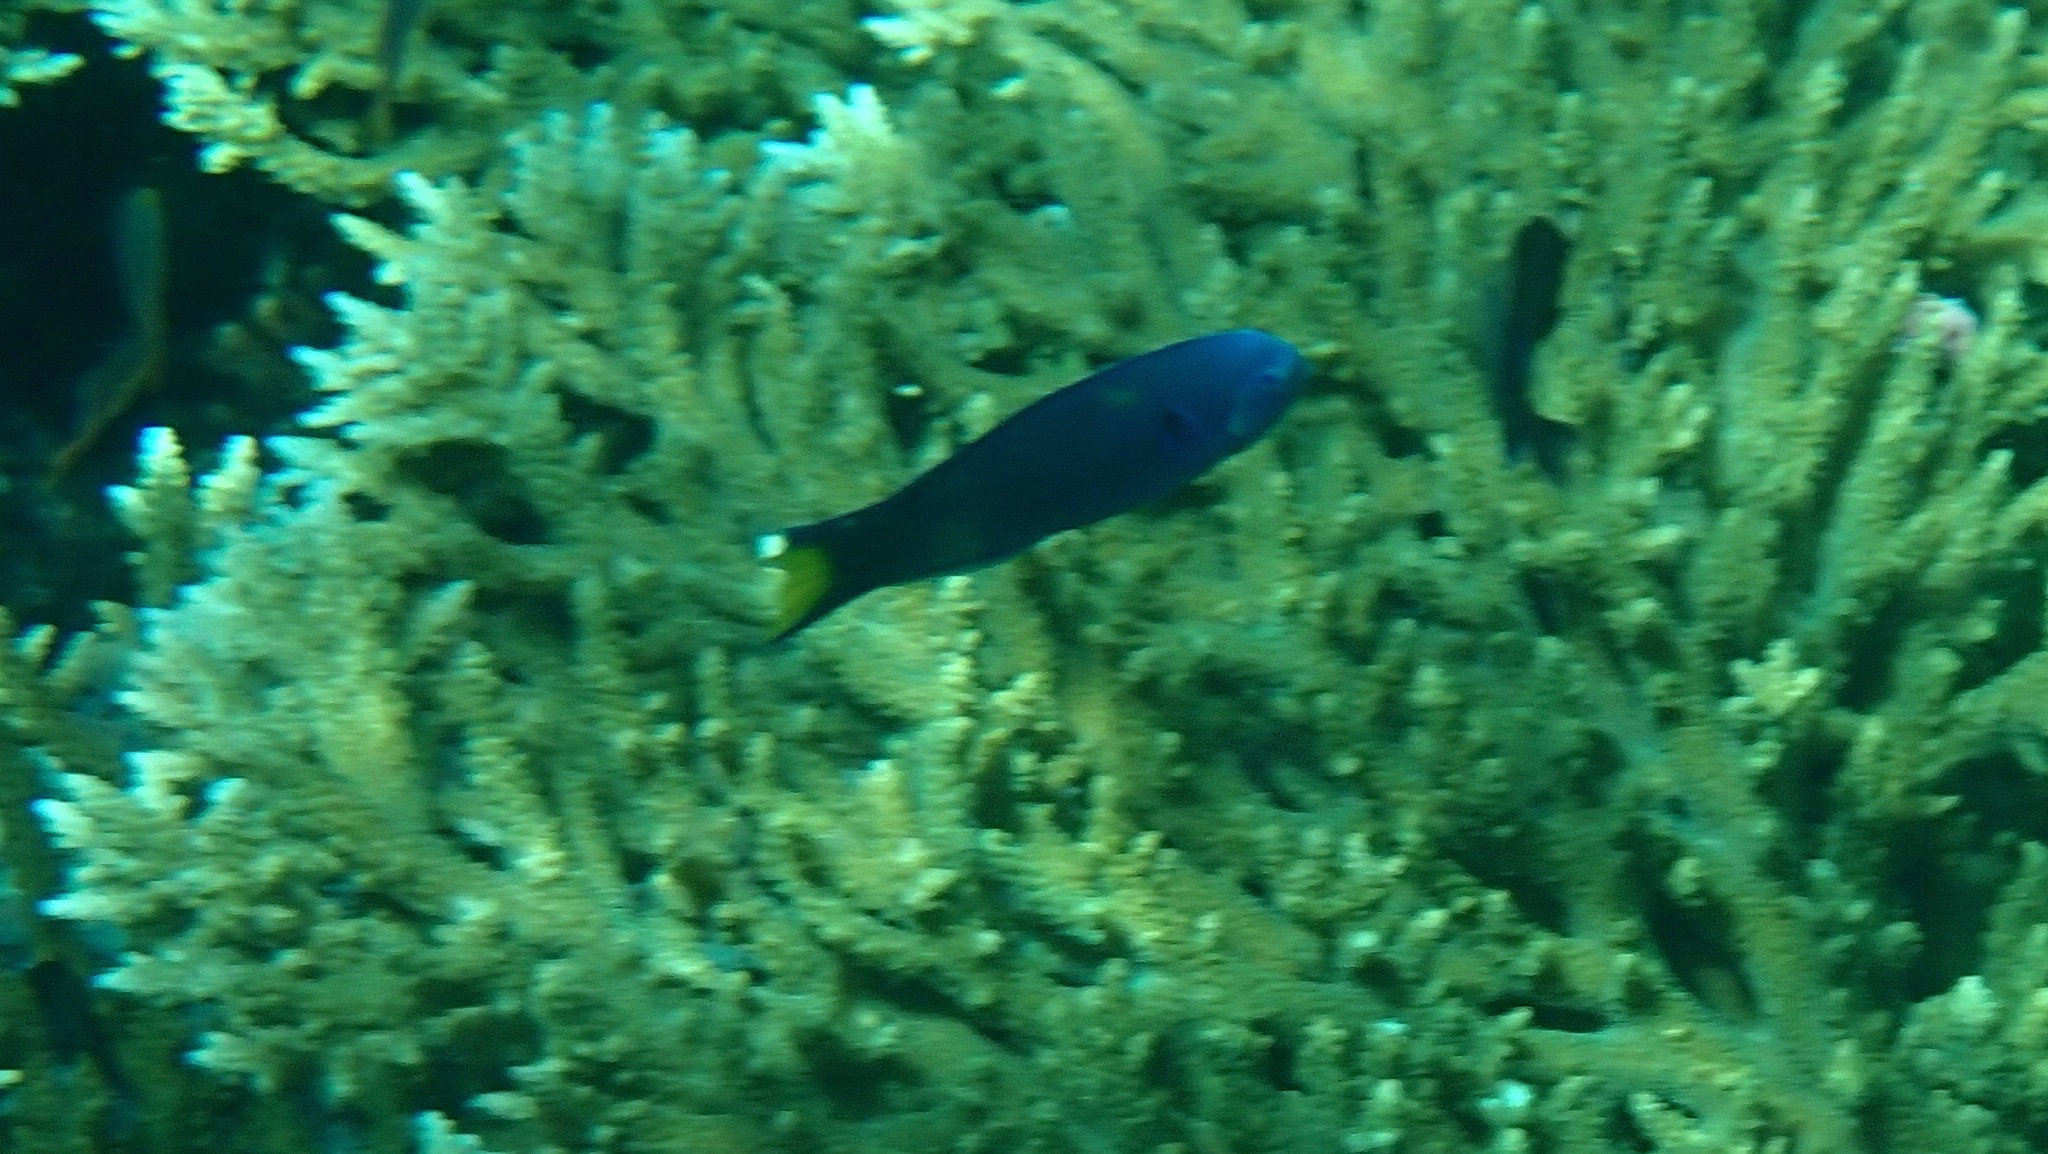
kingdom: Animalia
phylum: Chordata
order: Perciformes
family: Labridae
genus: Thalassoma
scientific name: Thalassoma lunare
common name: Blue wrasse
